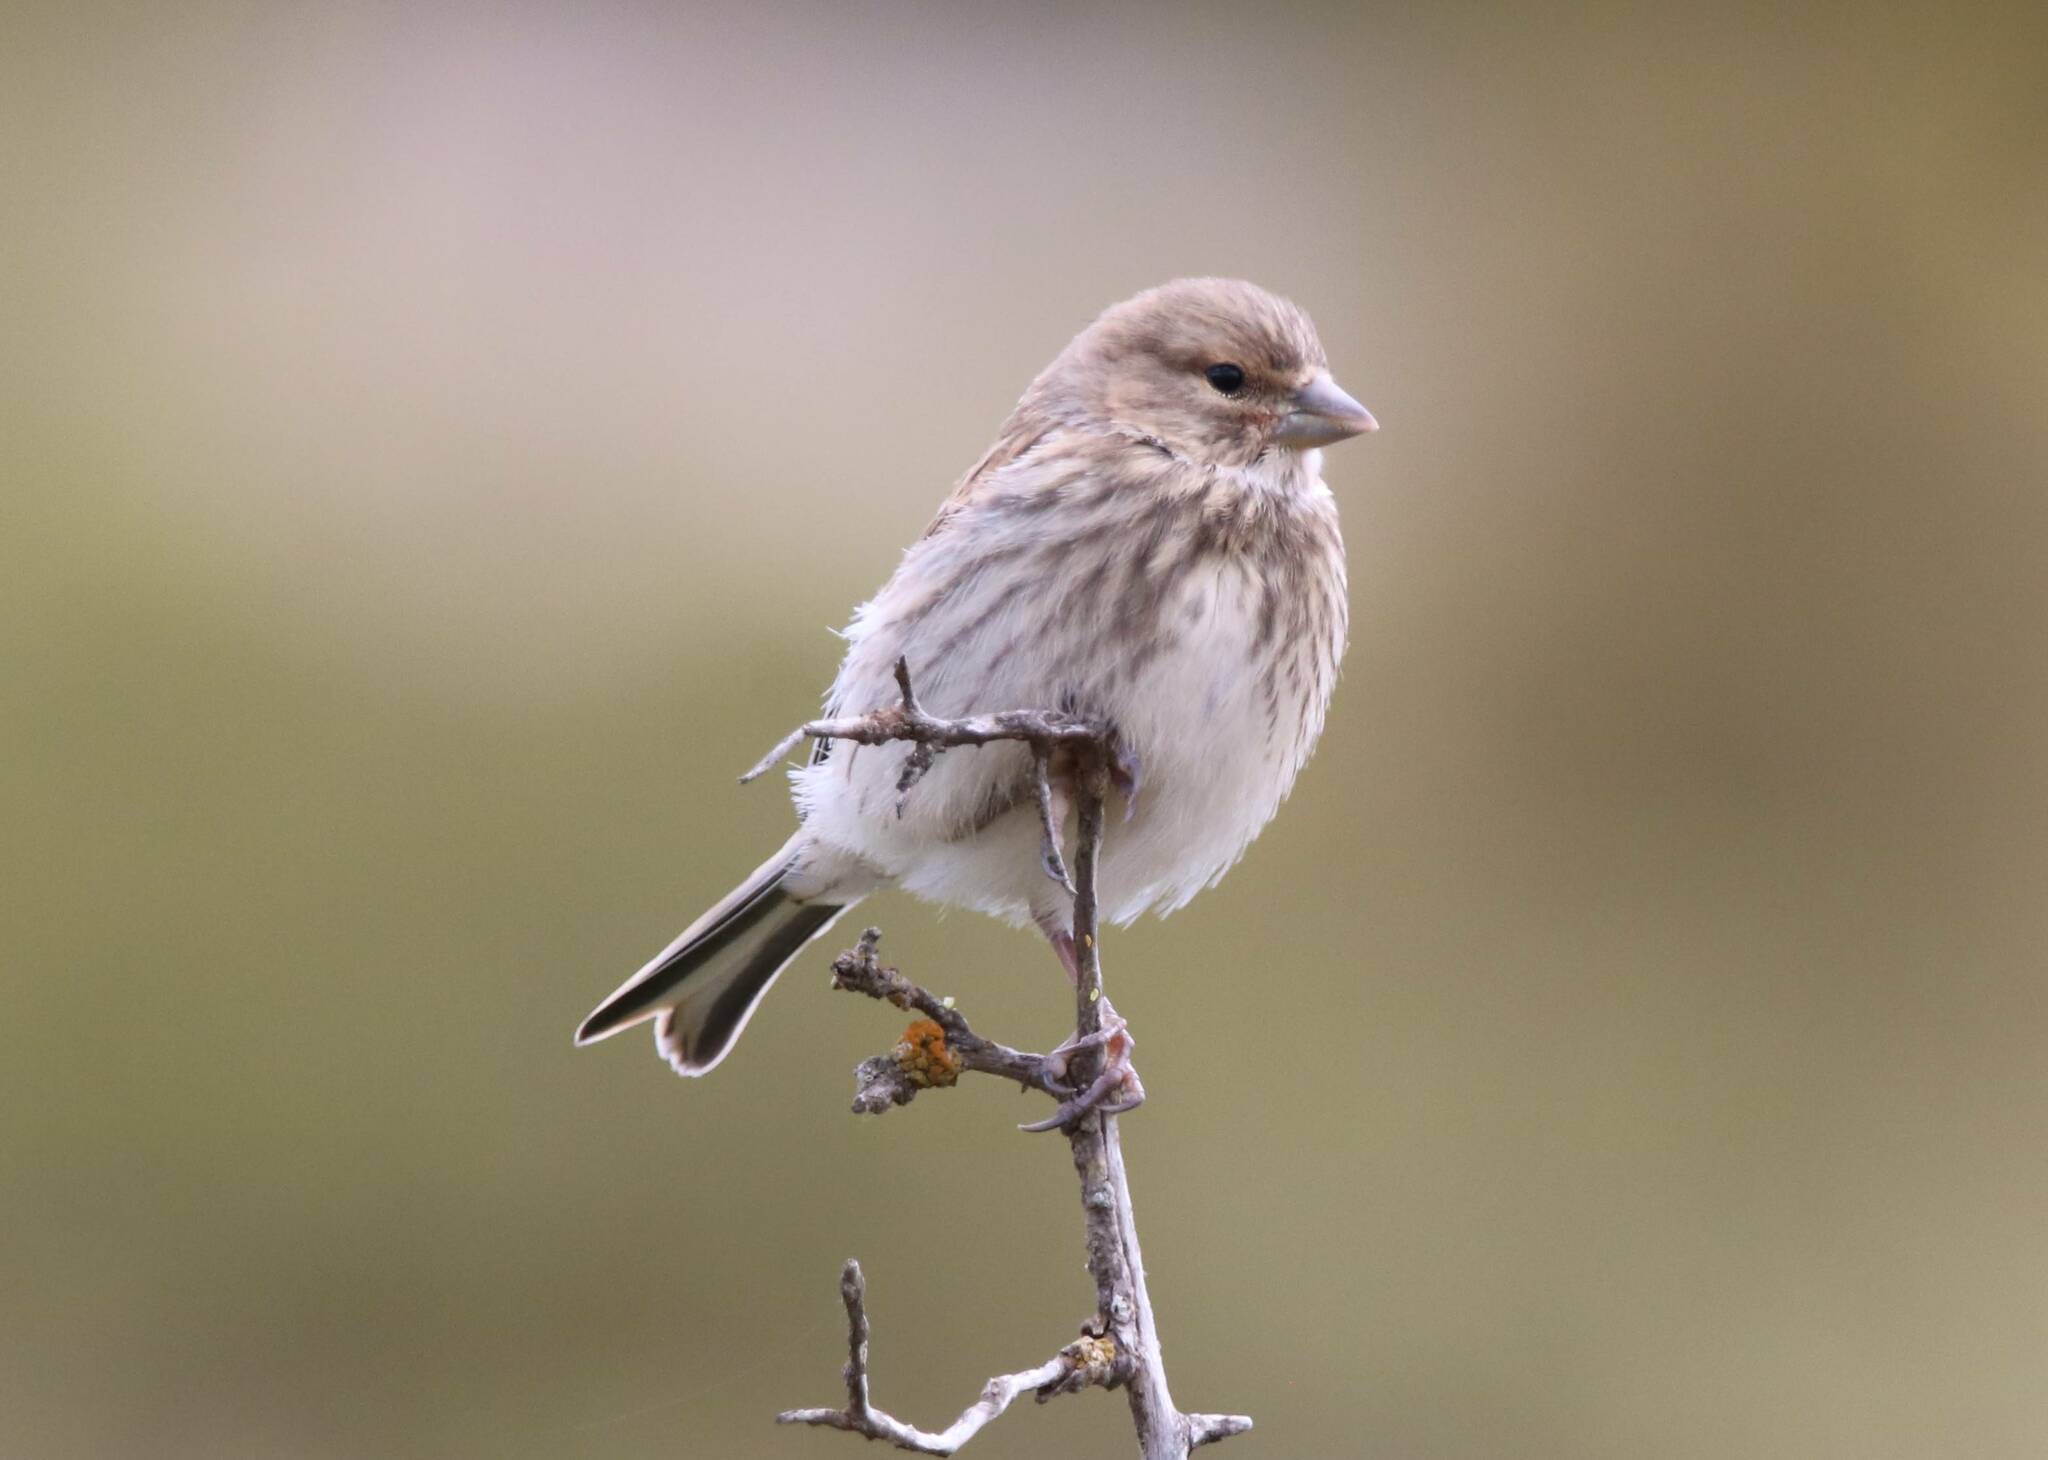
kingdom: Animalia
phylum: Chordata
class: Aves
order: Passeriformes
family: Fringillidae
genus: Linaria
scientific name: Linaria cannabina
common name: Common linnet
